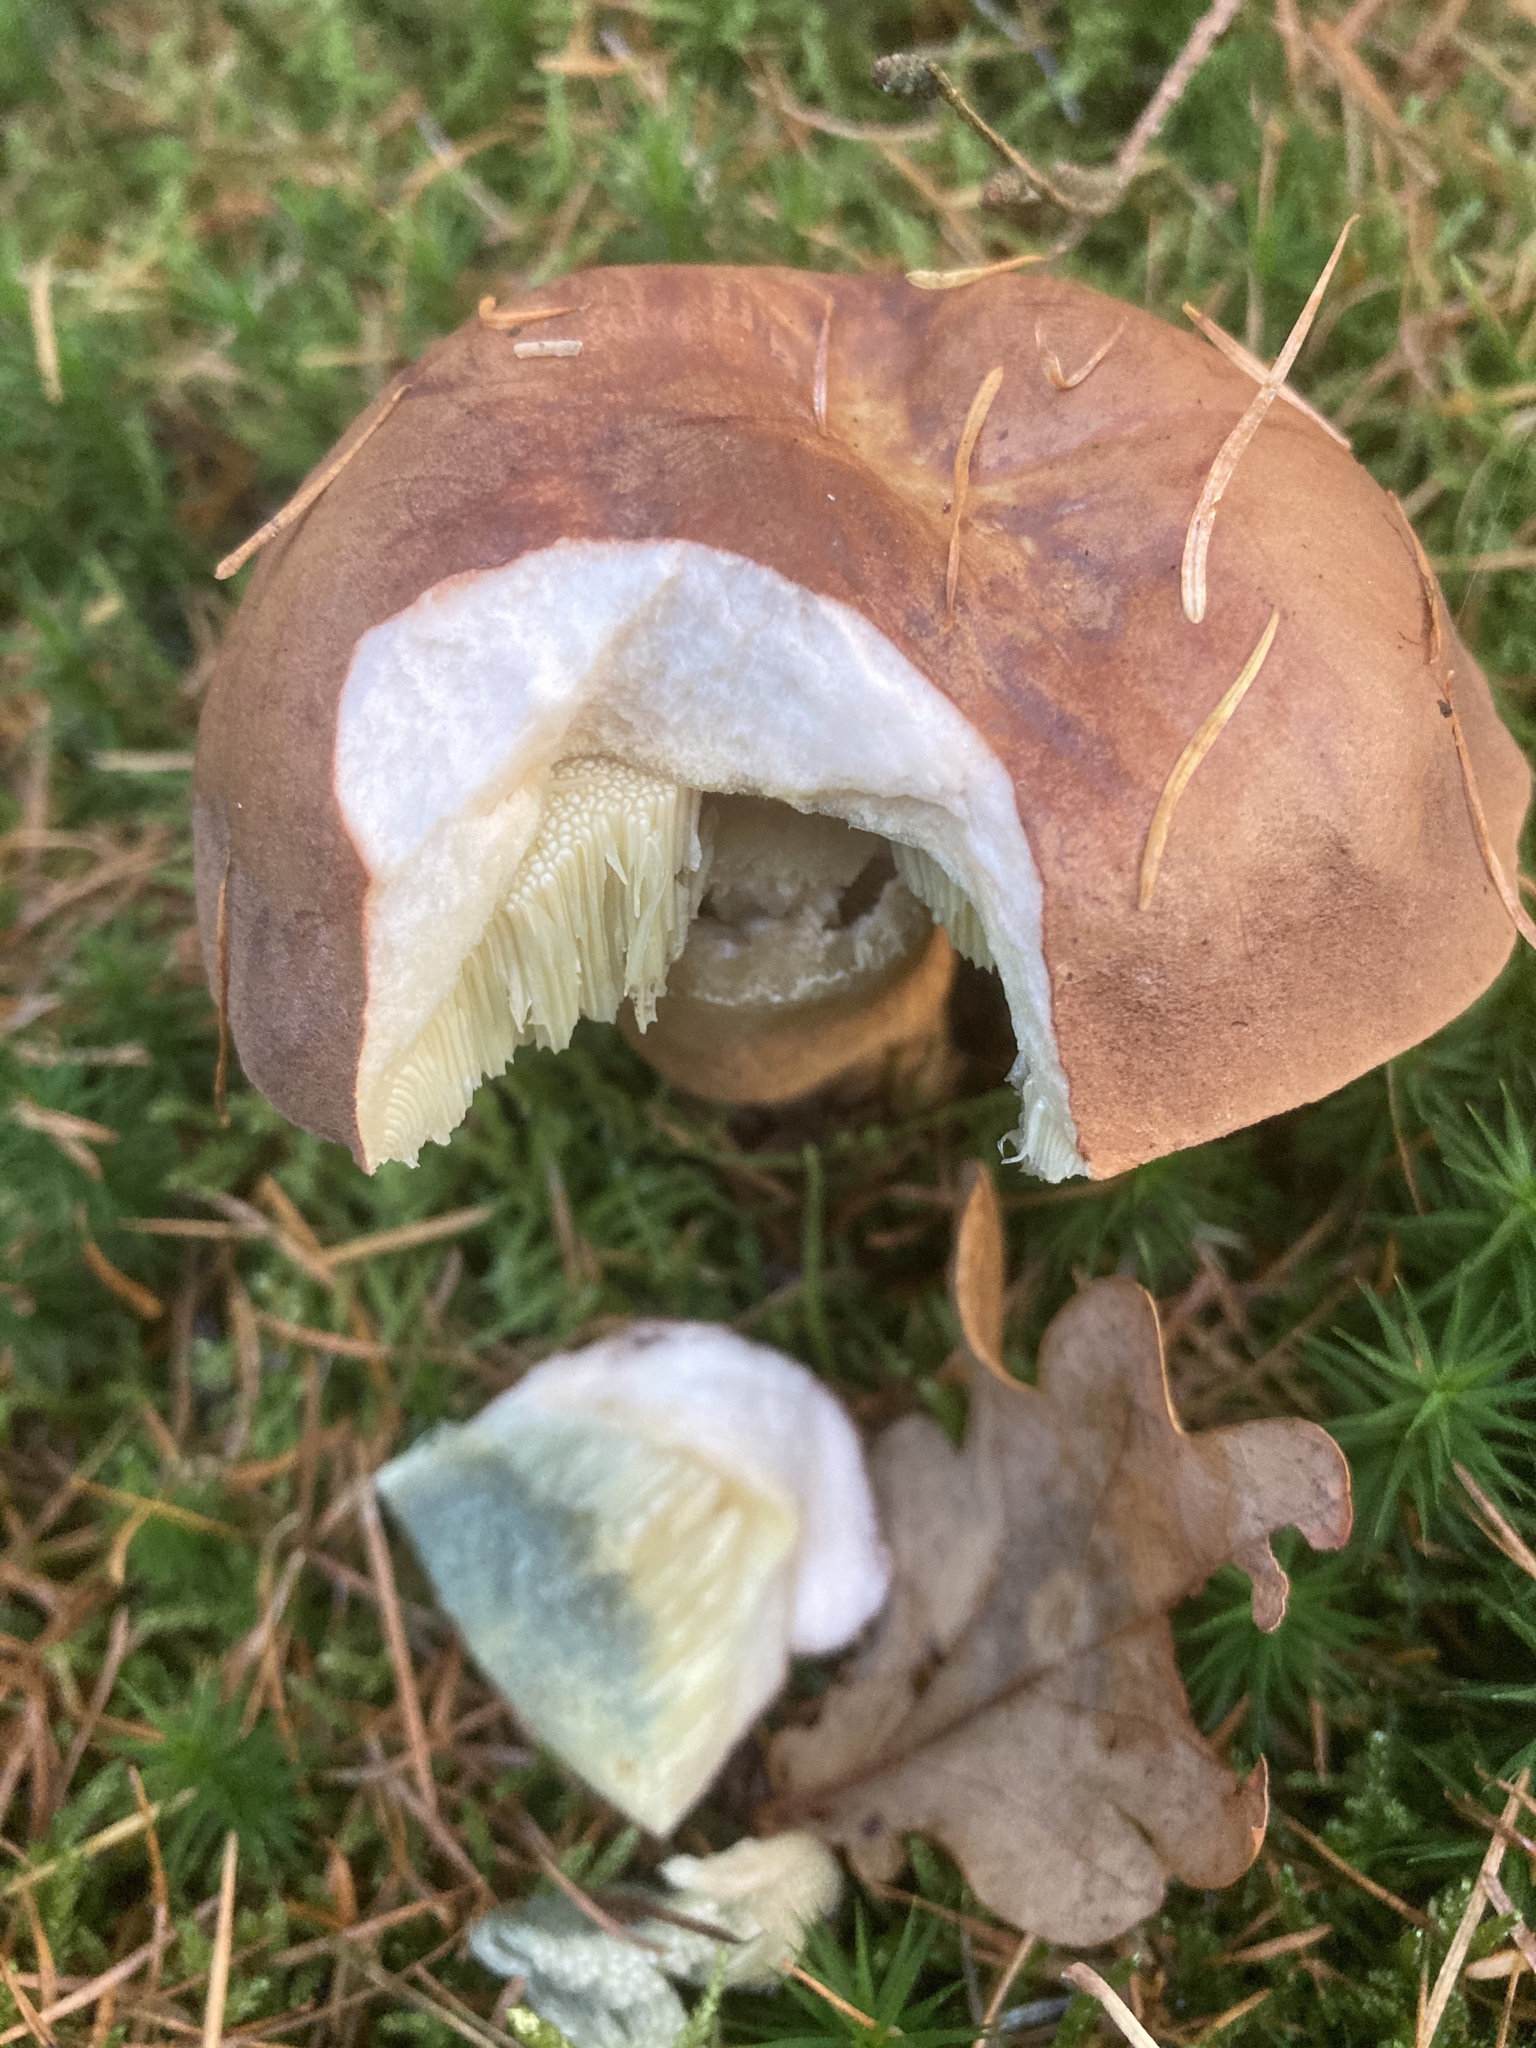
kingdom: Fungi
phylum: Basidiomycota
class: Agaricomycetes
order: Boletales
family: Boletaceae
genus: Imleria
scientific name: Imleria badia
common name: Bay bolete
